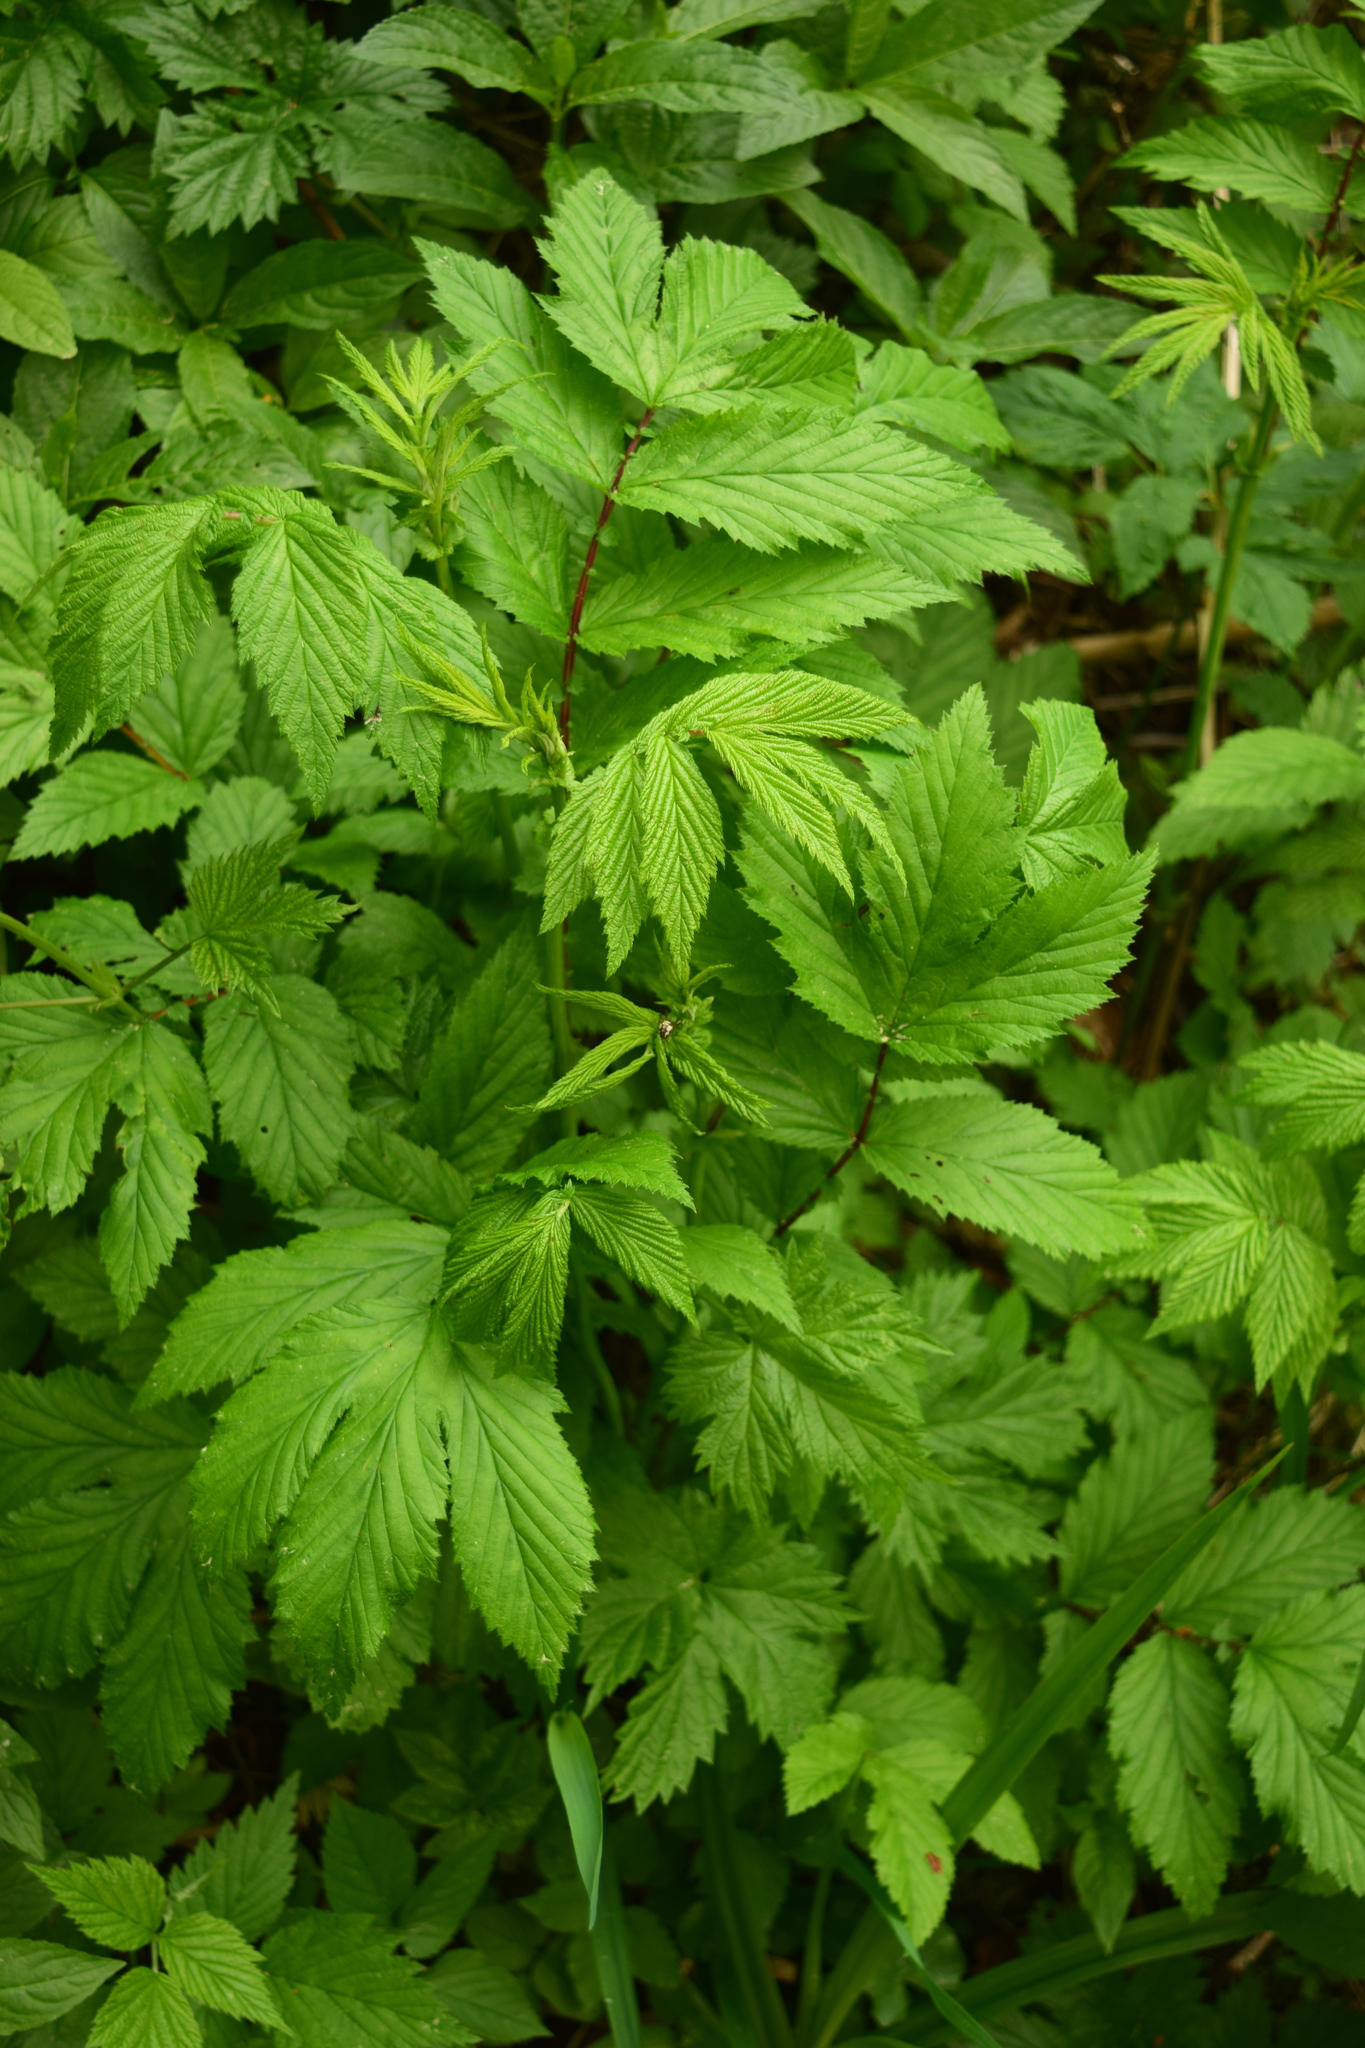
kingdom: Plantae
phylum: Tracheophyta
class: Magnoliopsida
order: Rosales
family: Rosaceae
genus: Filipendula
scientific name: Filipendula ulmaria
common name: Meadowsweet
